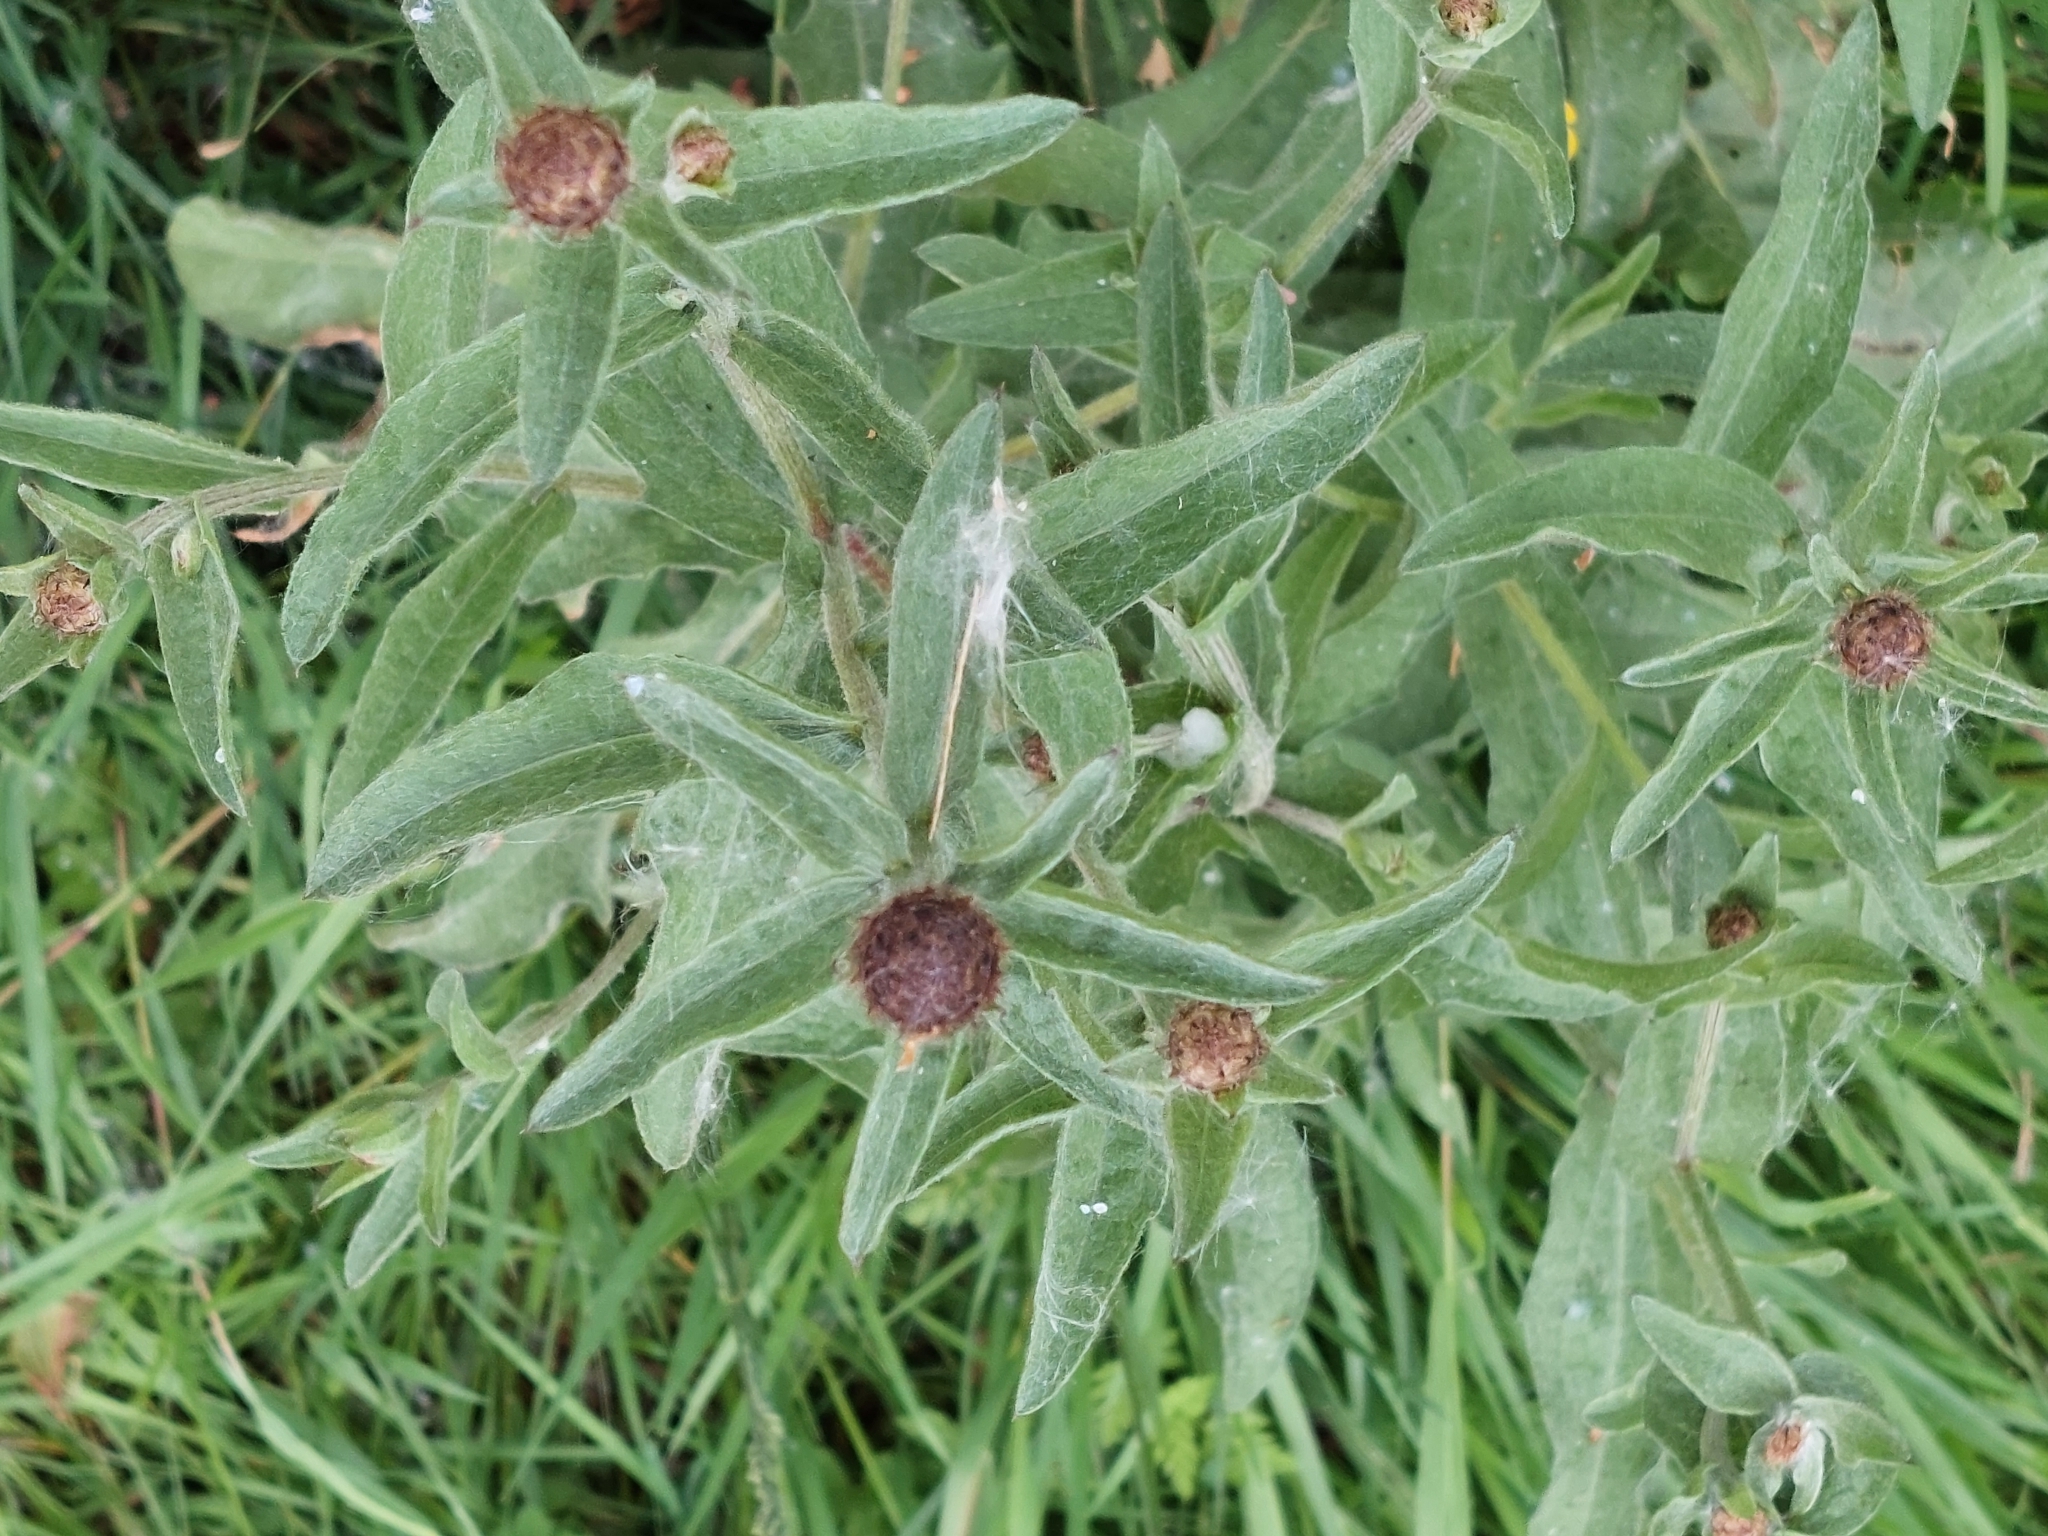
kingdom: Plantae
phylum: Tracheophyta
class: Magnoliopsida
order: Asterales
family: Asteraceae
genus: Centaurea
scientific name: Centaurea nigra
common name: Lesser knapweed
